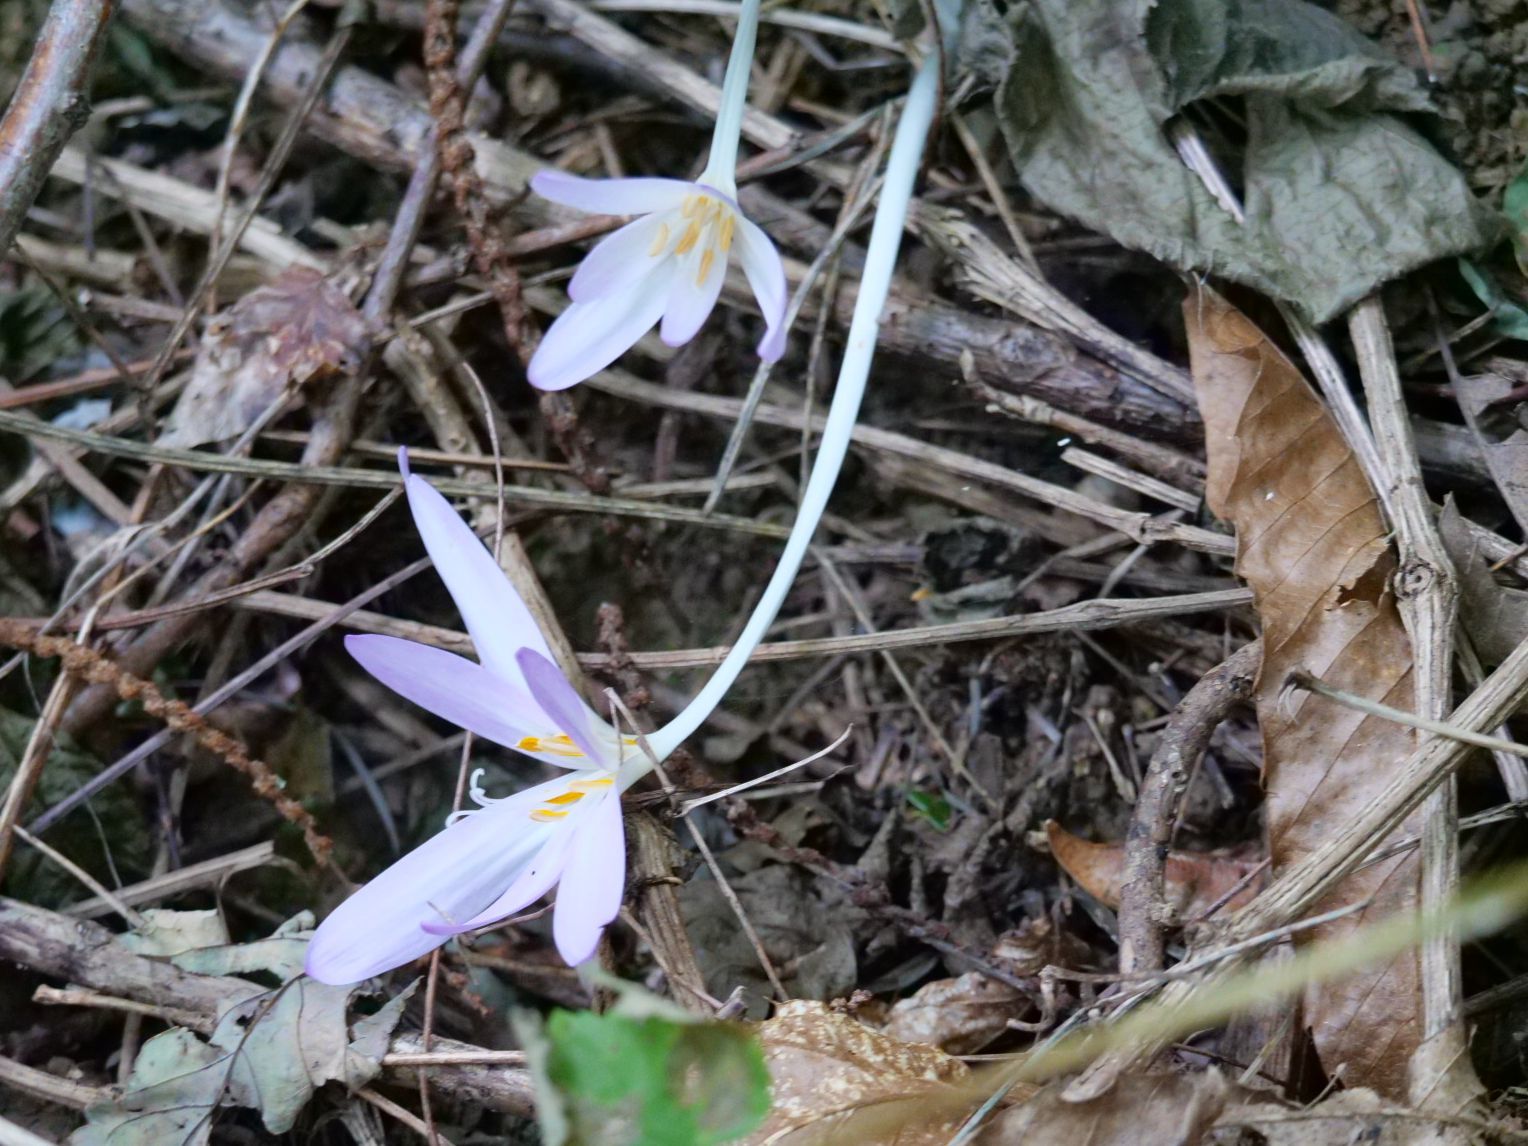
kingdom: Plantae
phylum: Tracheophyta
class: Liliopsida
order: Liliales
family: Colchicaceae
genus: Colchicum
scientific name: Colchicum autumnale
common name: Autumn crocus
